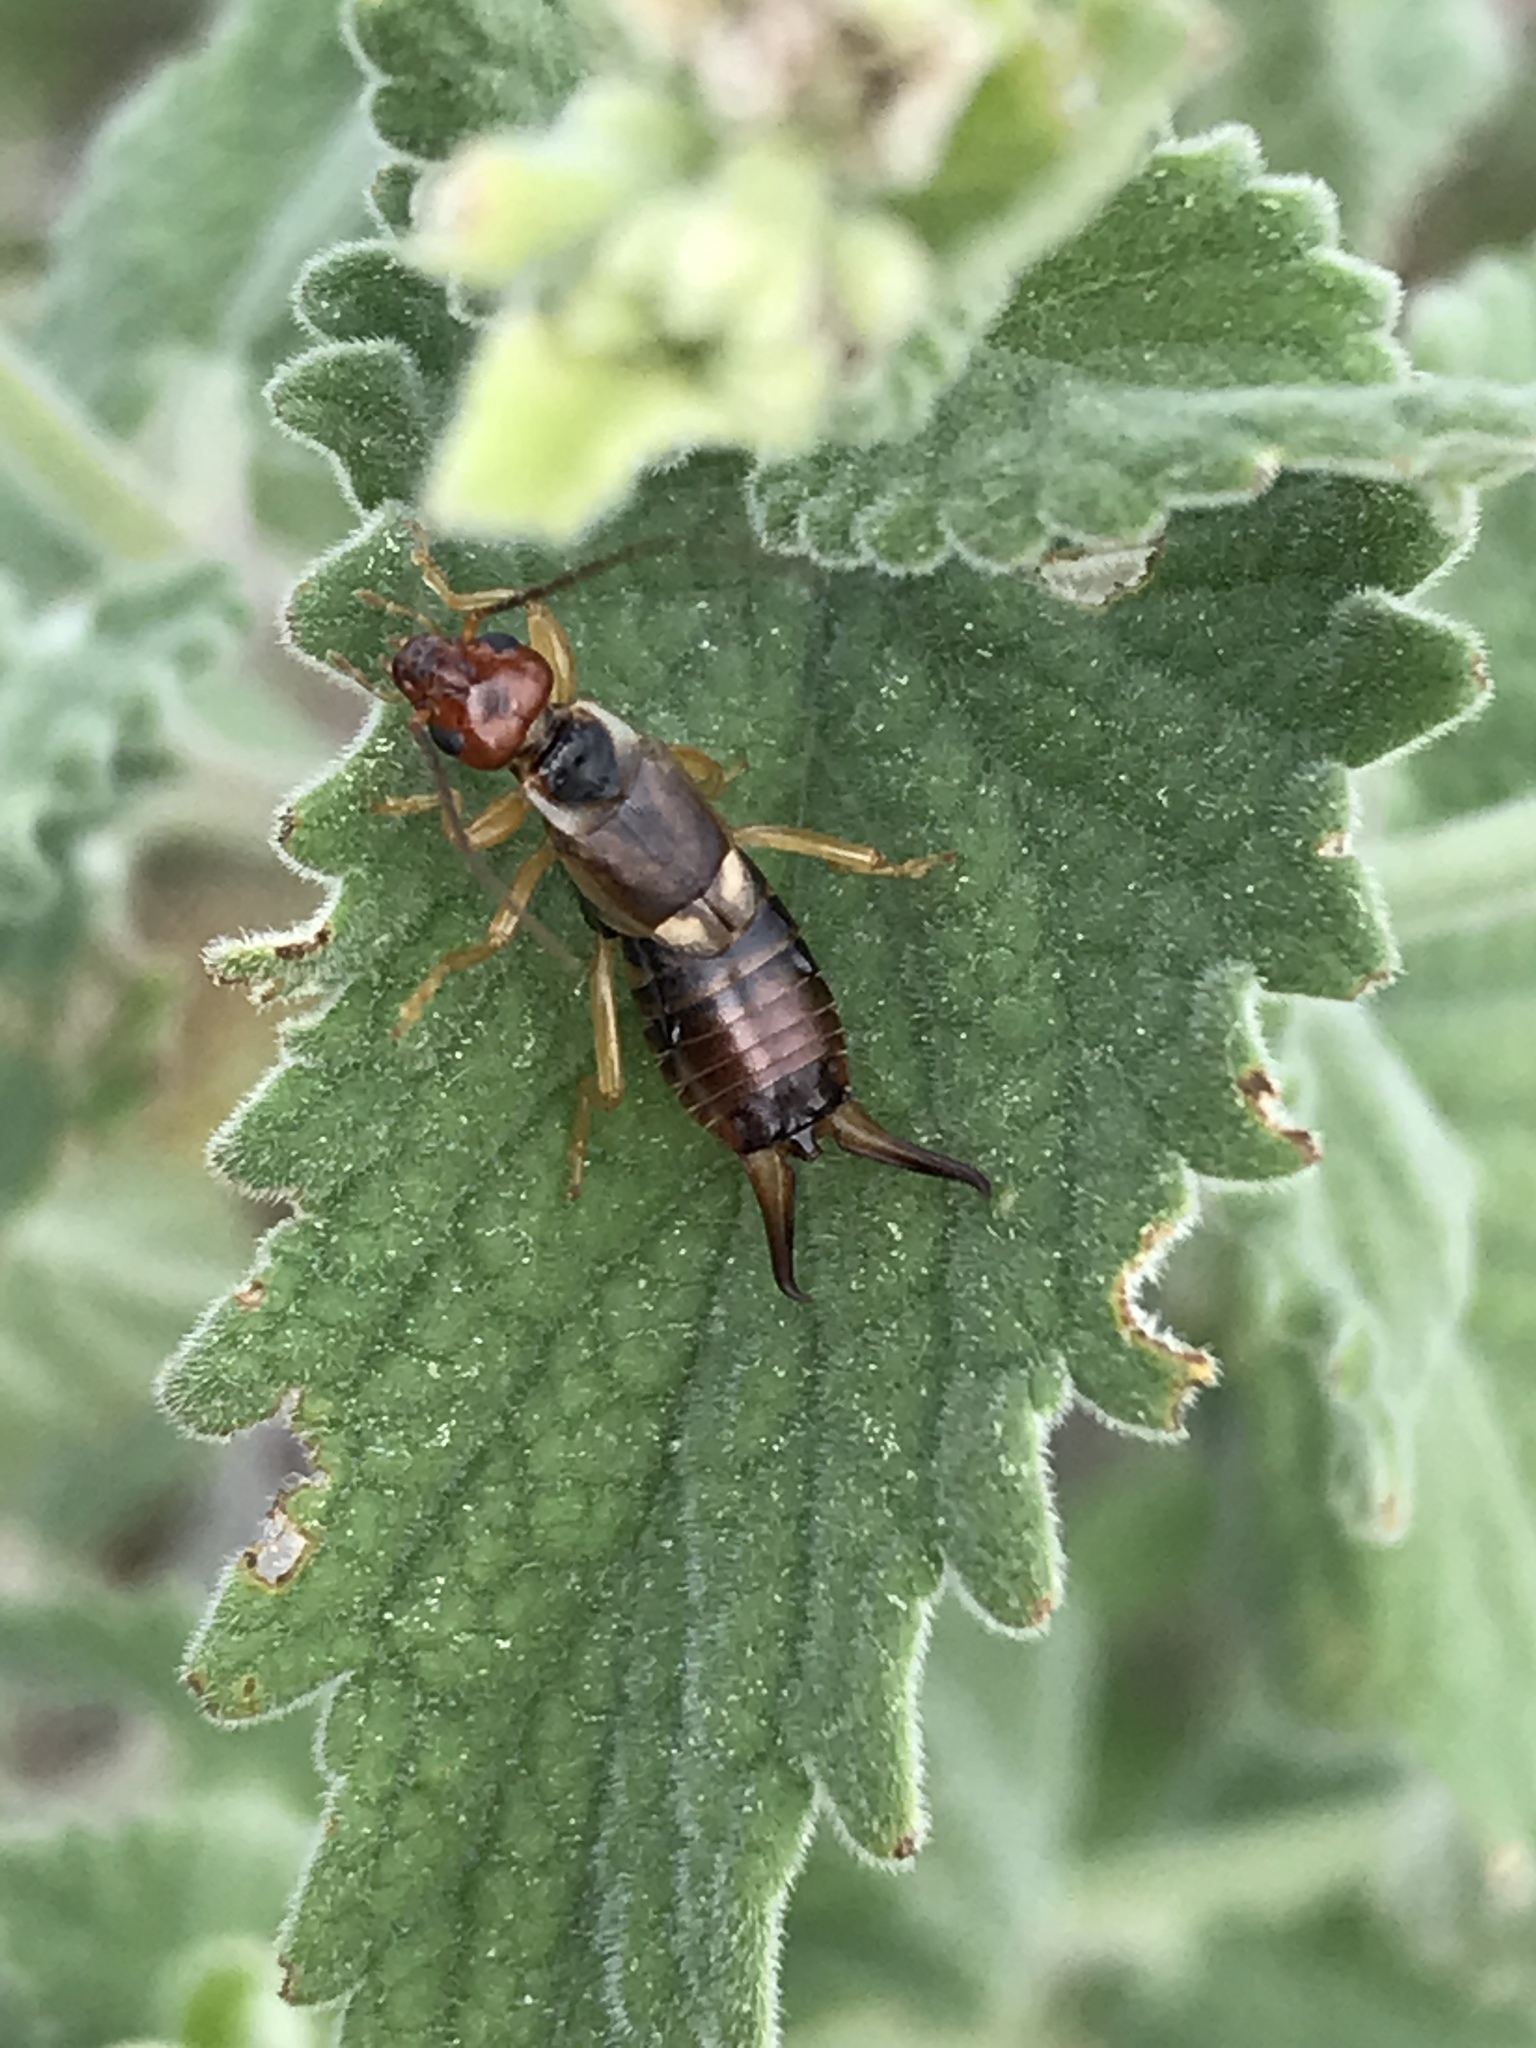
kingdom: Animalia
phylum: Arthropoda
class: Insecta
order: Dermaptera
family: Forficulidae
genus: Forficula
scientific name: Forficula
